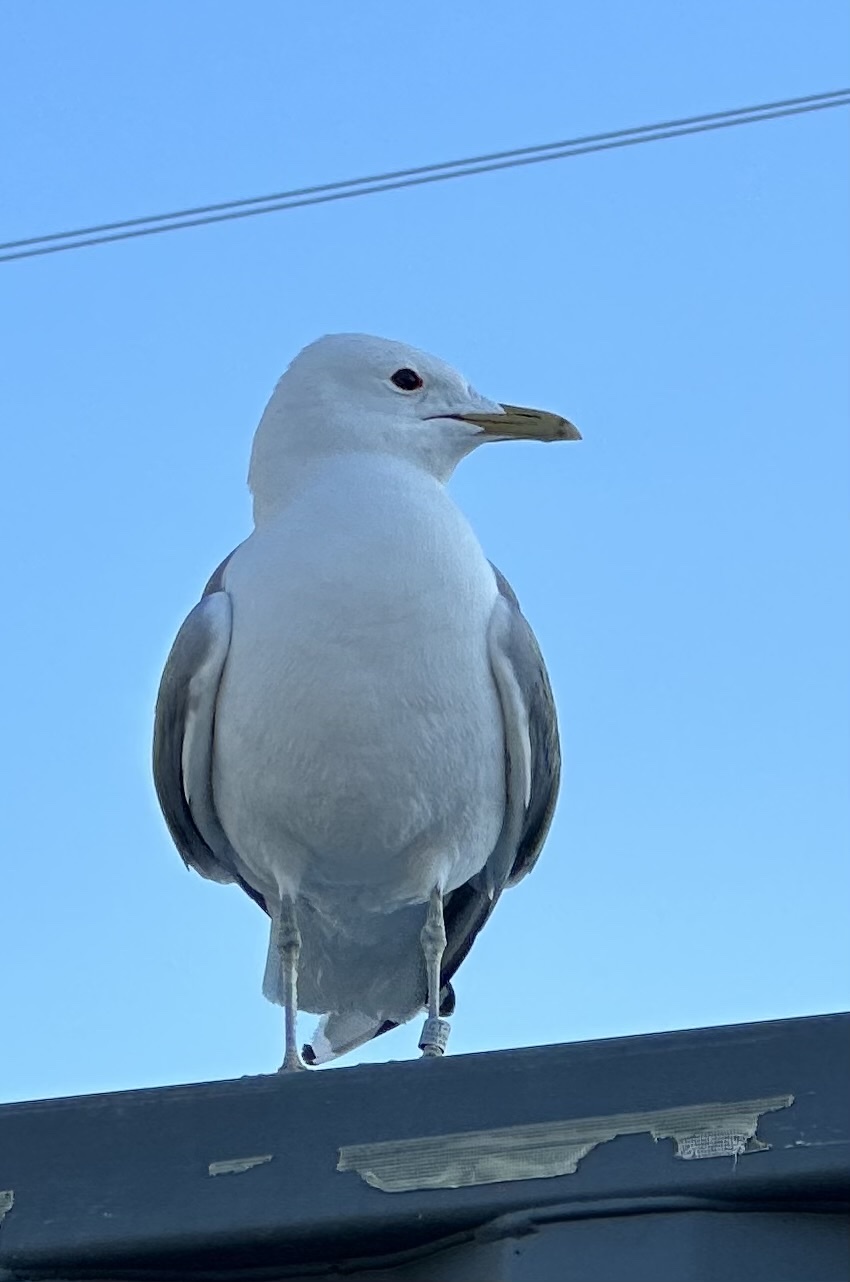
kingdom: Animalia
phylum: Chordata
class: Aves
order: Charadriiformes
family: Laridae
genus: Larus
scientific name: Larus canus
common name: Mew gull
